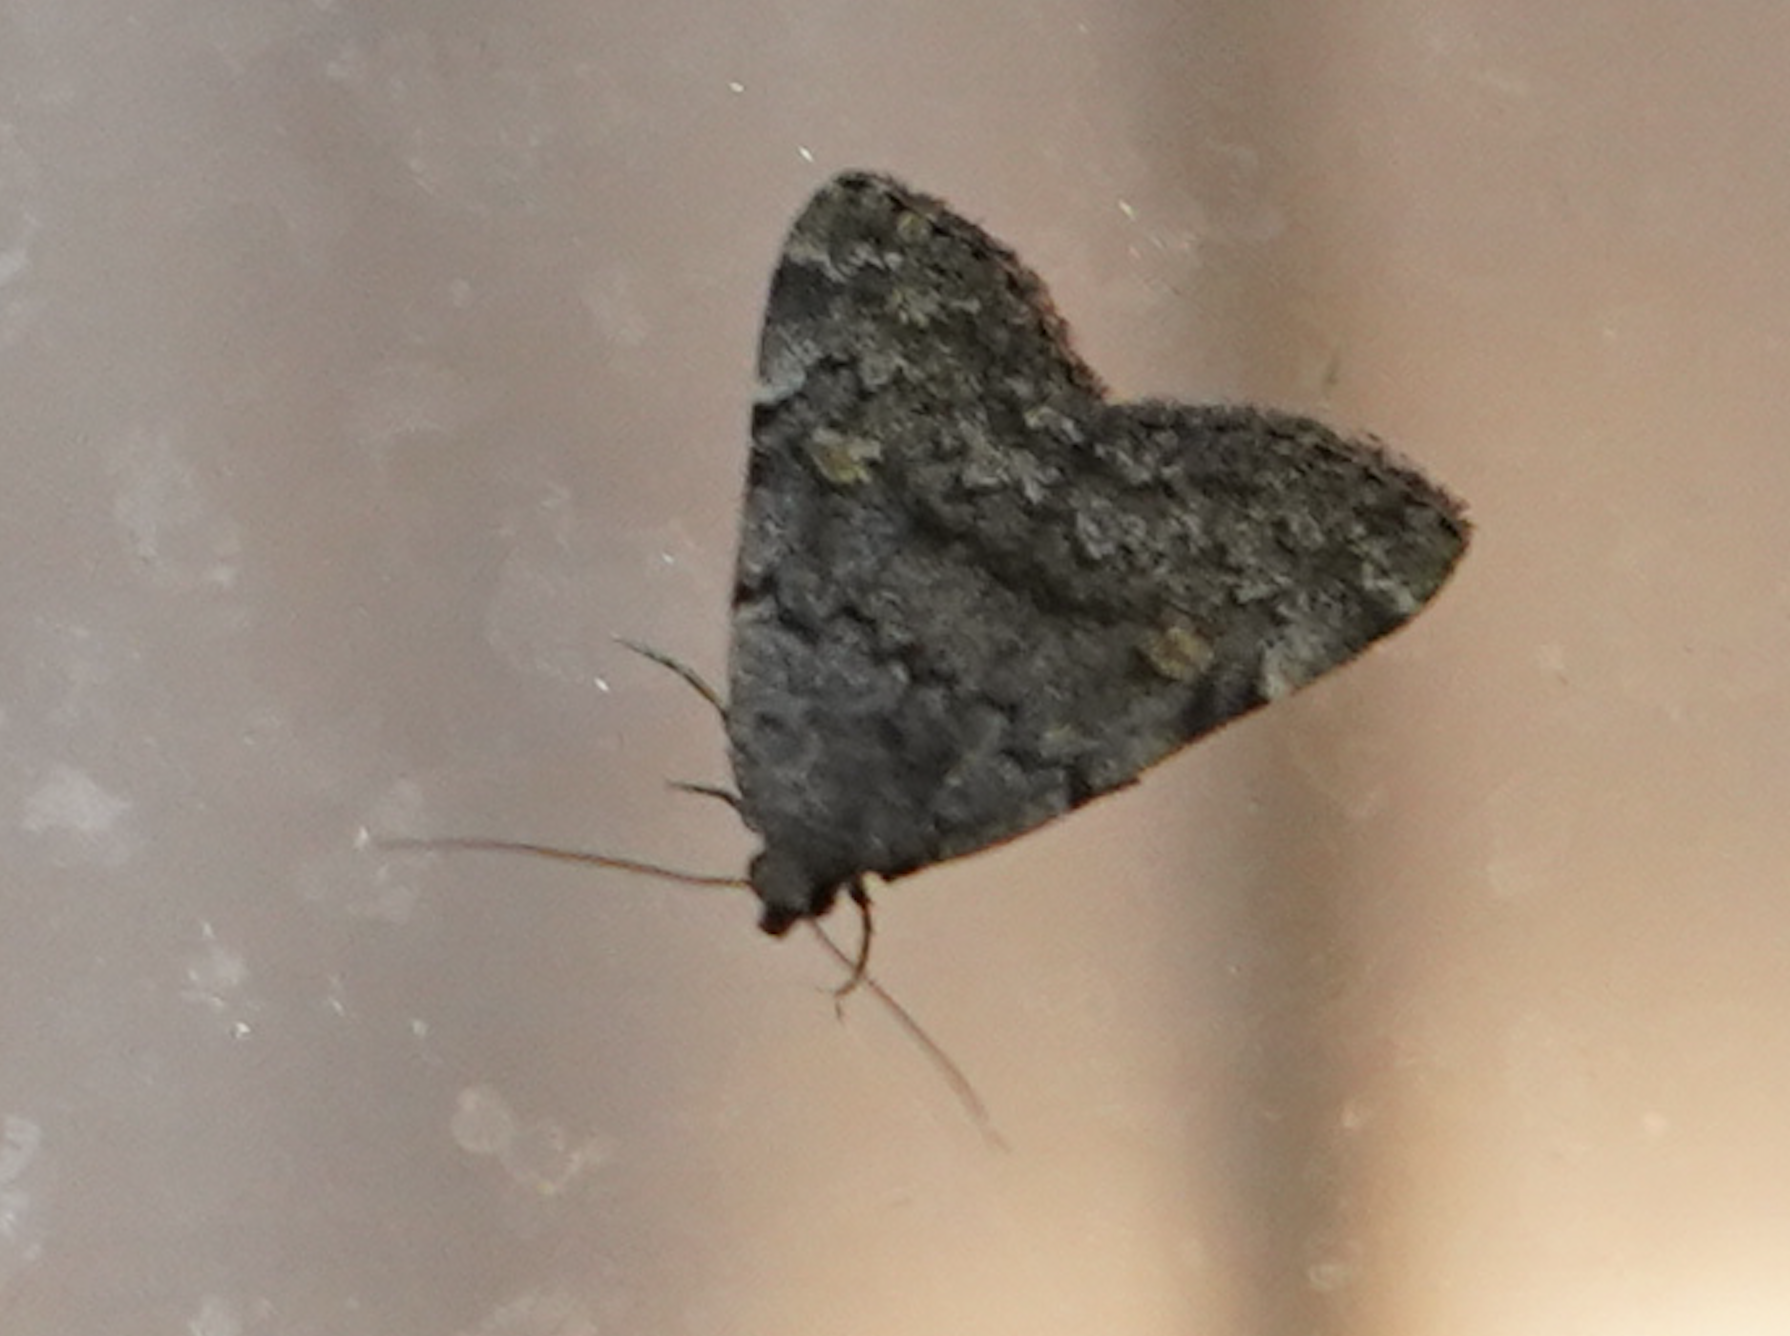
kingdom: Animalia
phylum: Arthropoda
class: Insecta
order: Lepidoptera
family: Erebidae
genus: Idia
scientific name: Idia aemula
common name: Common idia moth
